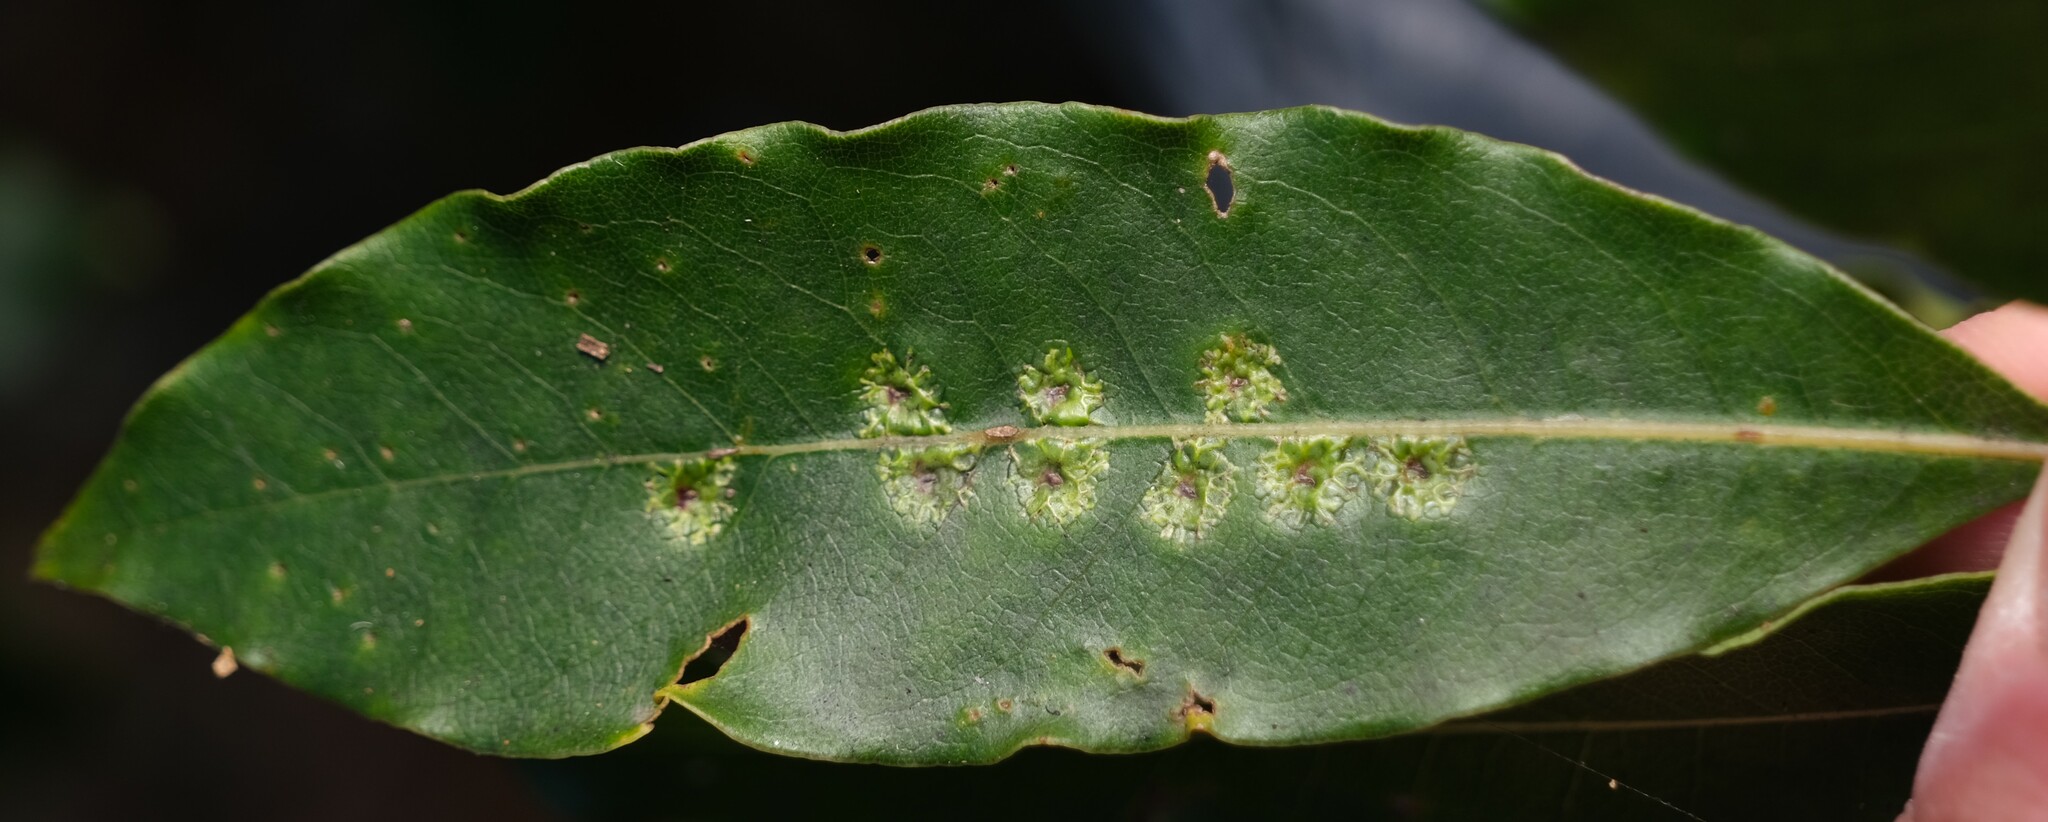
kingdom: Animalia
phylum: Arthropoda
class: Insecta
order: Diptera
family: Agromyzidae
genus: Phytoliriomyza
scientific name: Phytoliriomyza pittosporophylli
